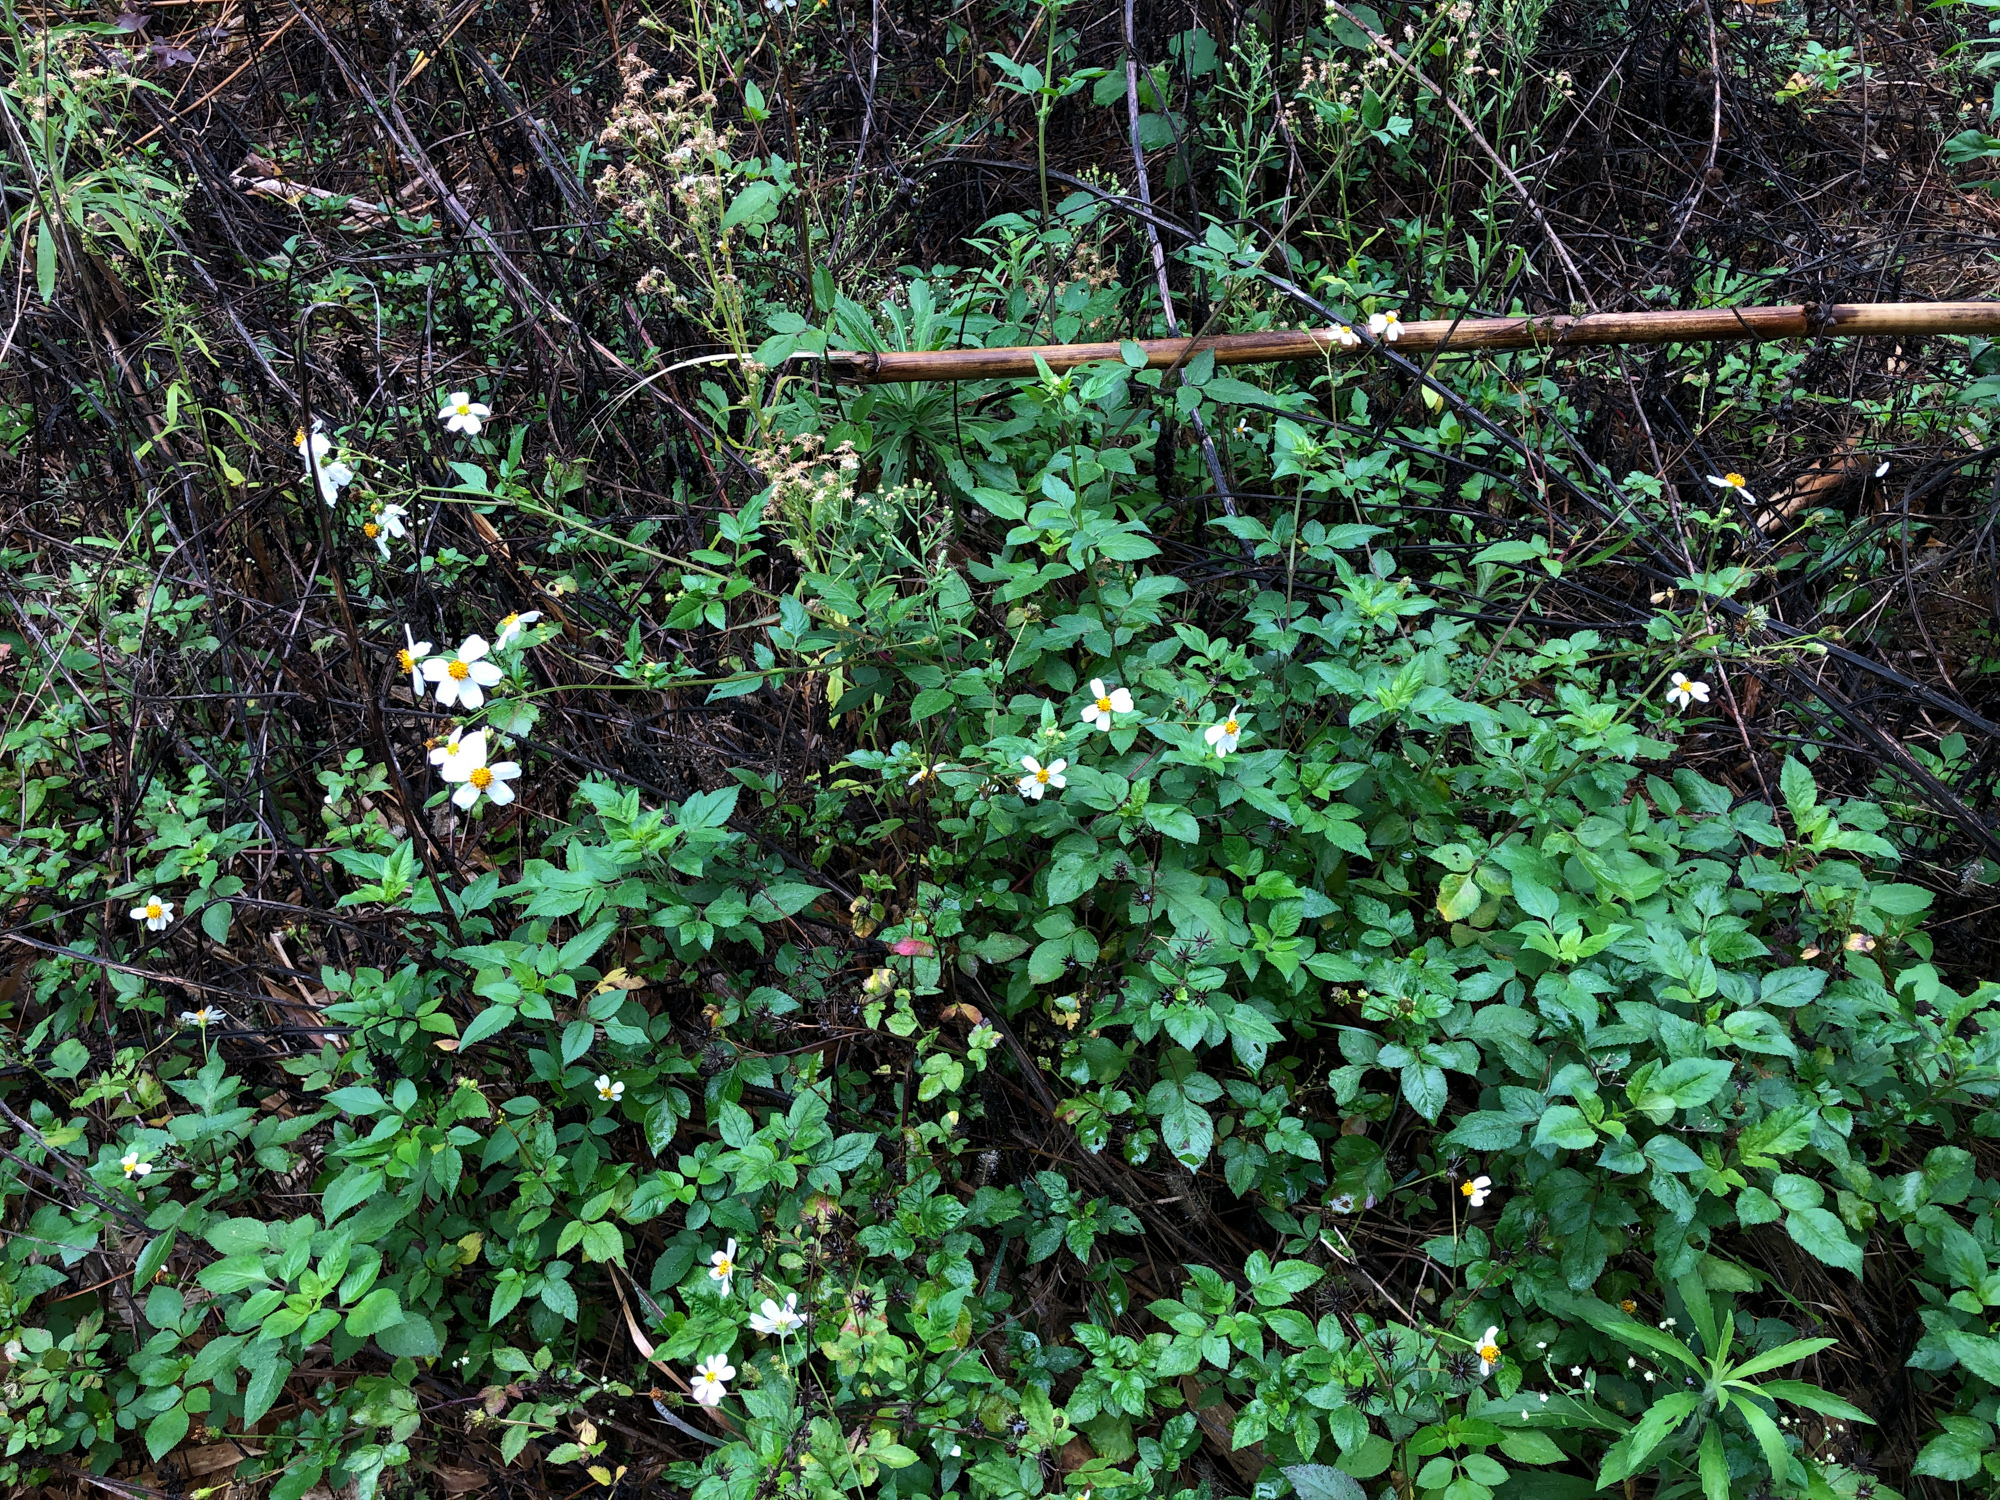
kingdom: Plantae
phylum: Tracheophyta
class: Magnoliopsida
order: Asterales
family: Asteraceae
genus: Bidens
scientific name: Bidens alba
